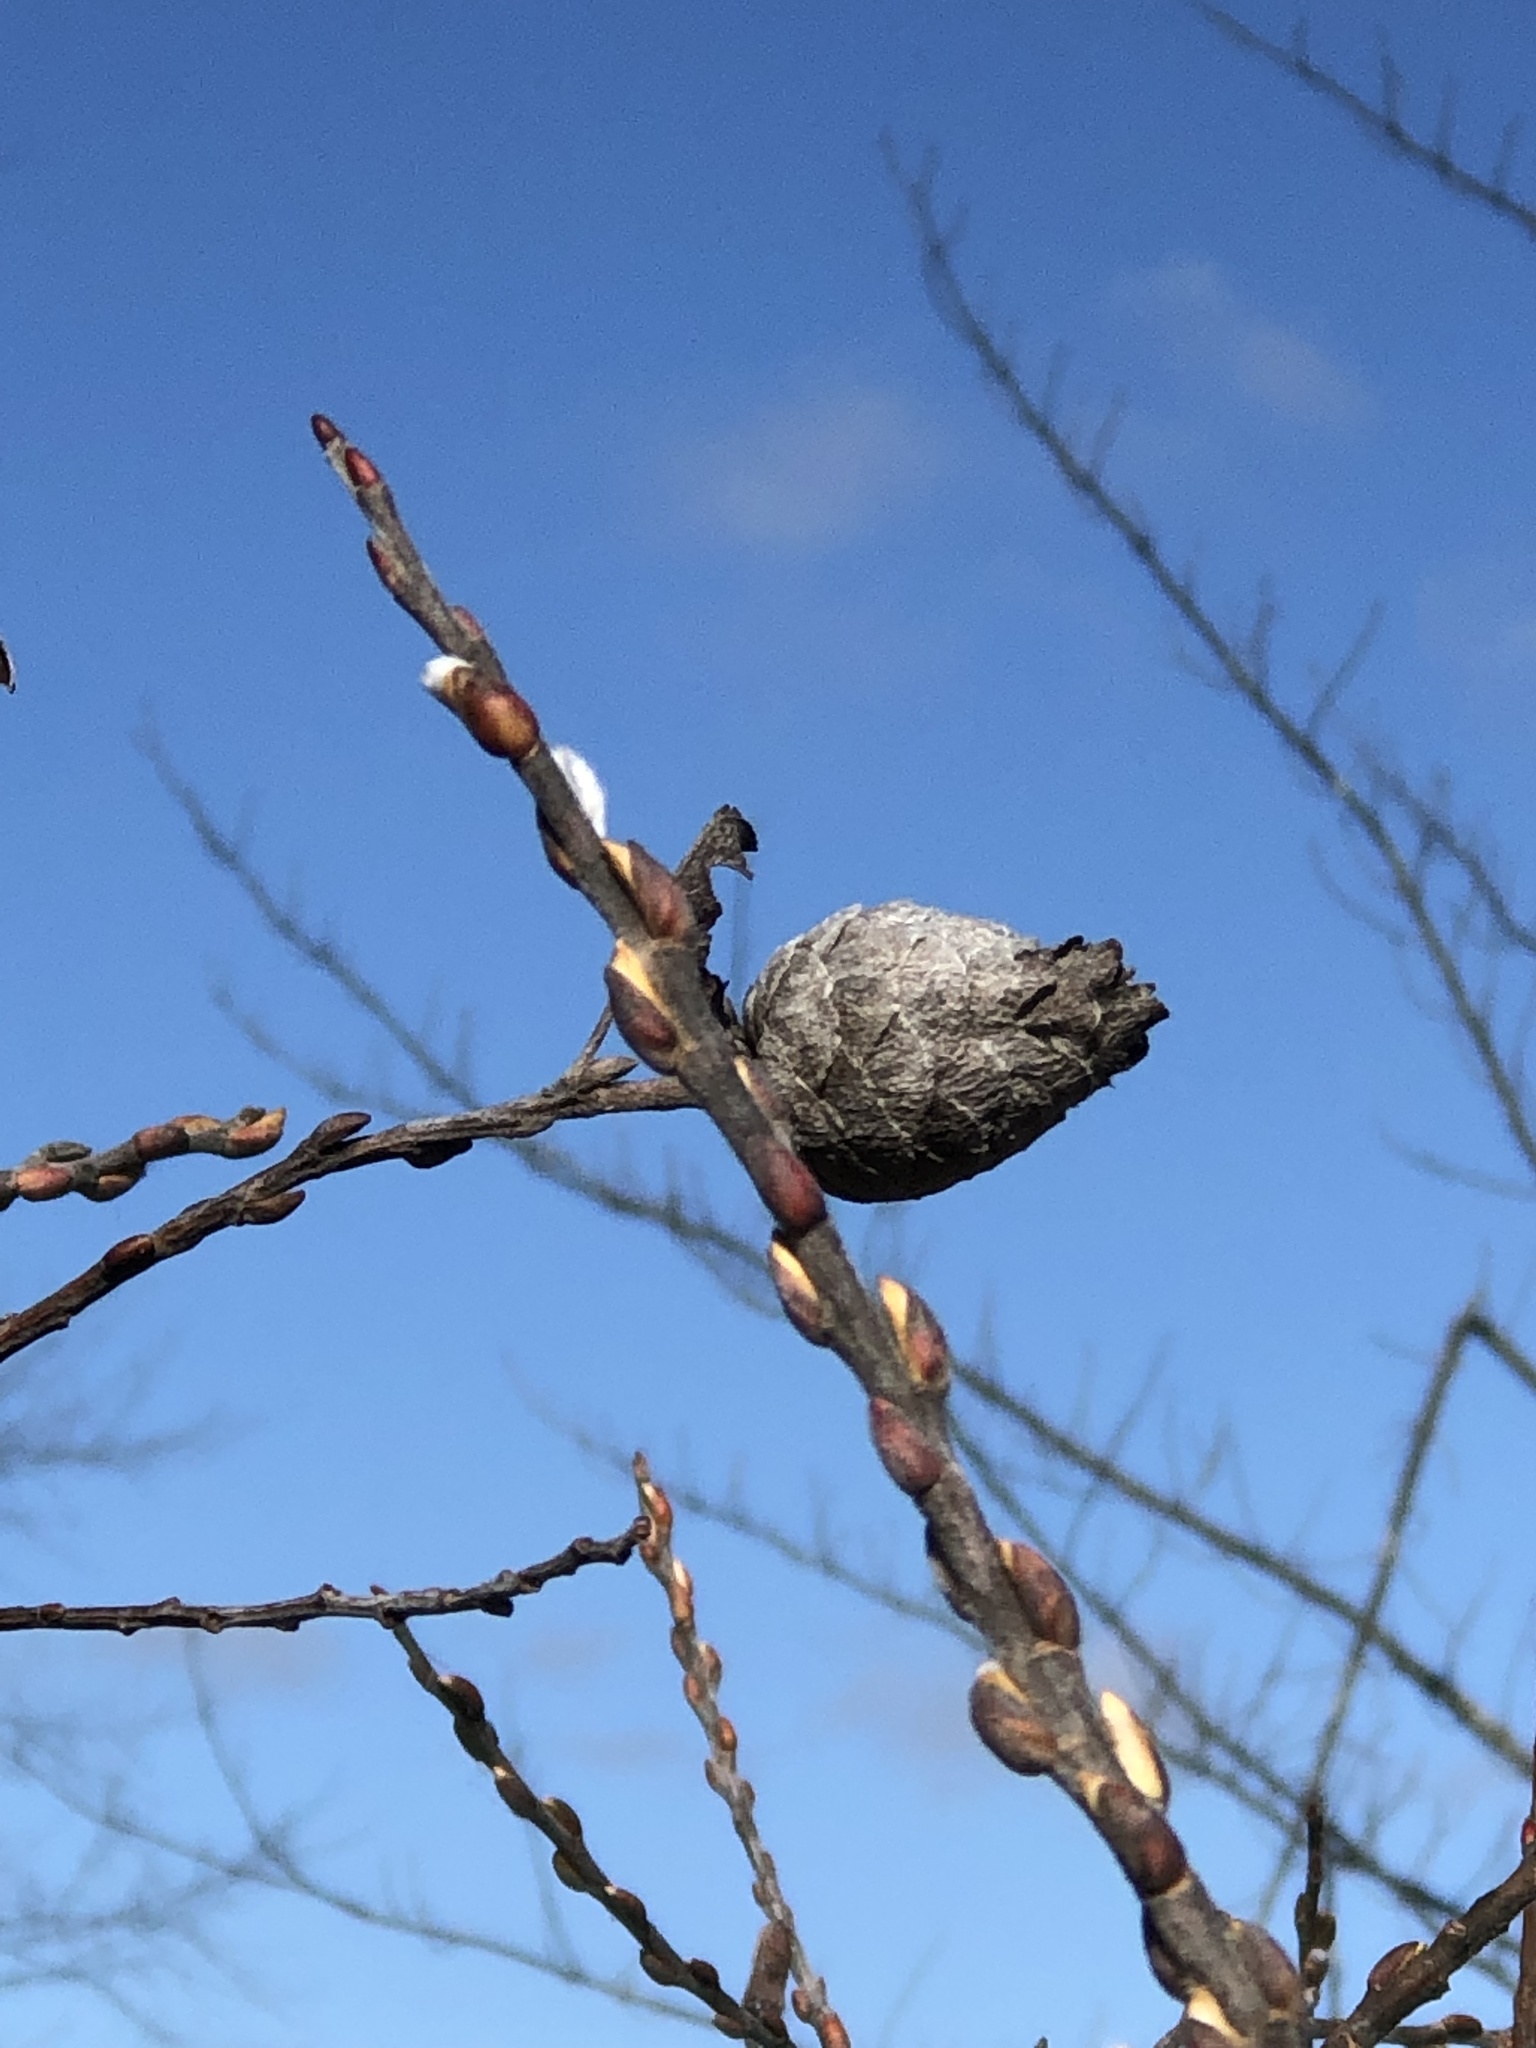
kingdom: Animalia
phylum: Arthropoda
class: Insecta
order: Diptera
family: Cecidomyiidae
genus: Rabdophaga
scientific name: Rabdophaga strobiloides
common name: Willow pinecone gall midge
